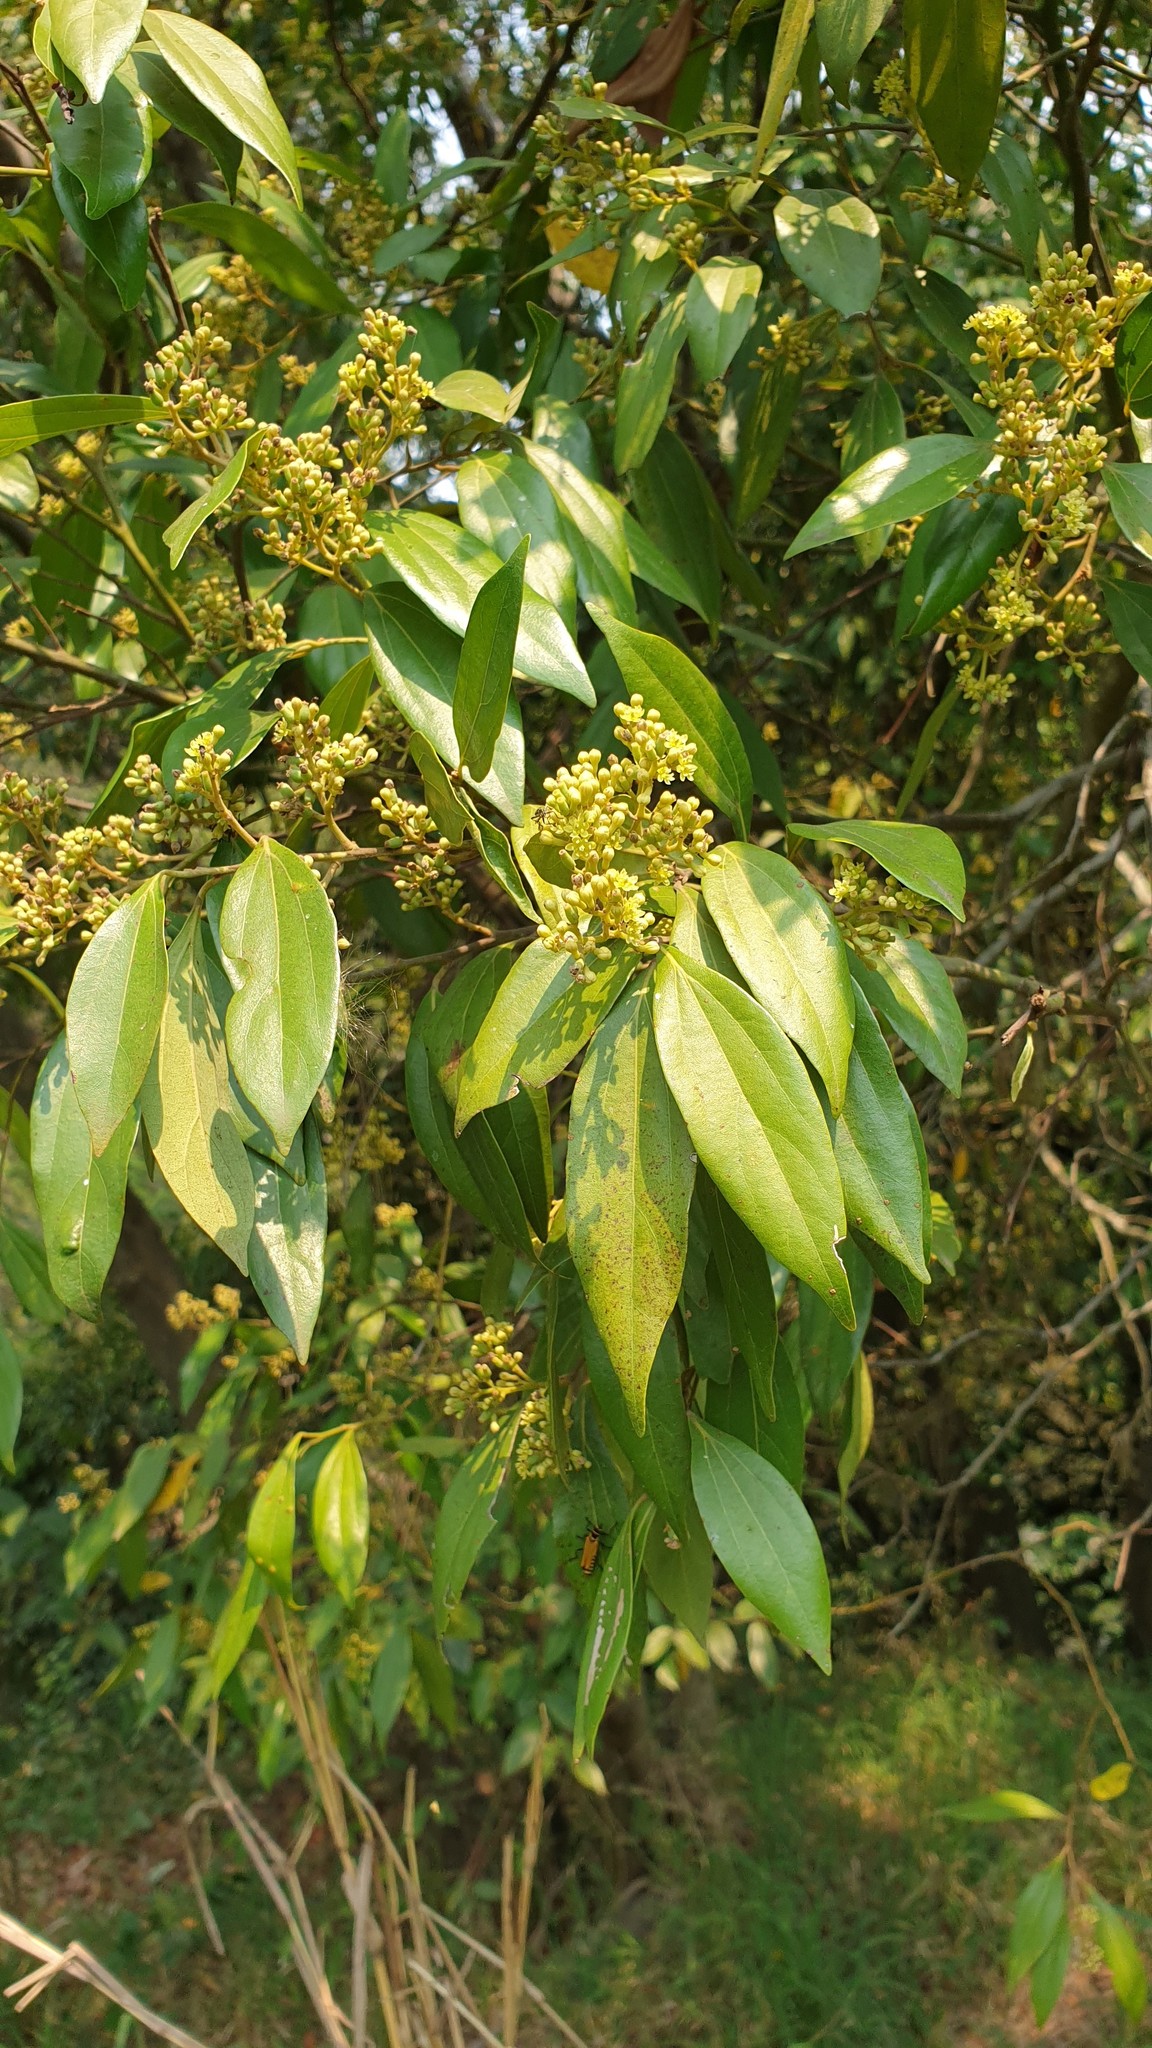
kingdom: Plantae
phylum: Tracheophyta
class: Magnoliopsida
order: Laurales
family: Lauraceae
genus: Cryptocarya
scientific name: Cryptocarya triplinervis
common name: Three-vein cryptocarya
